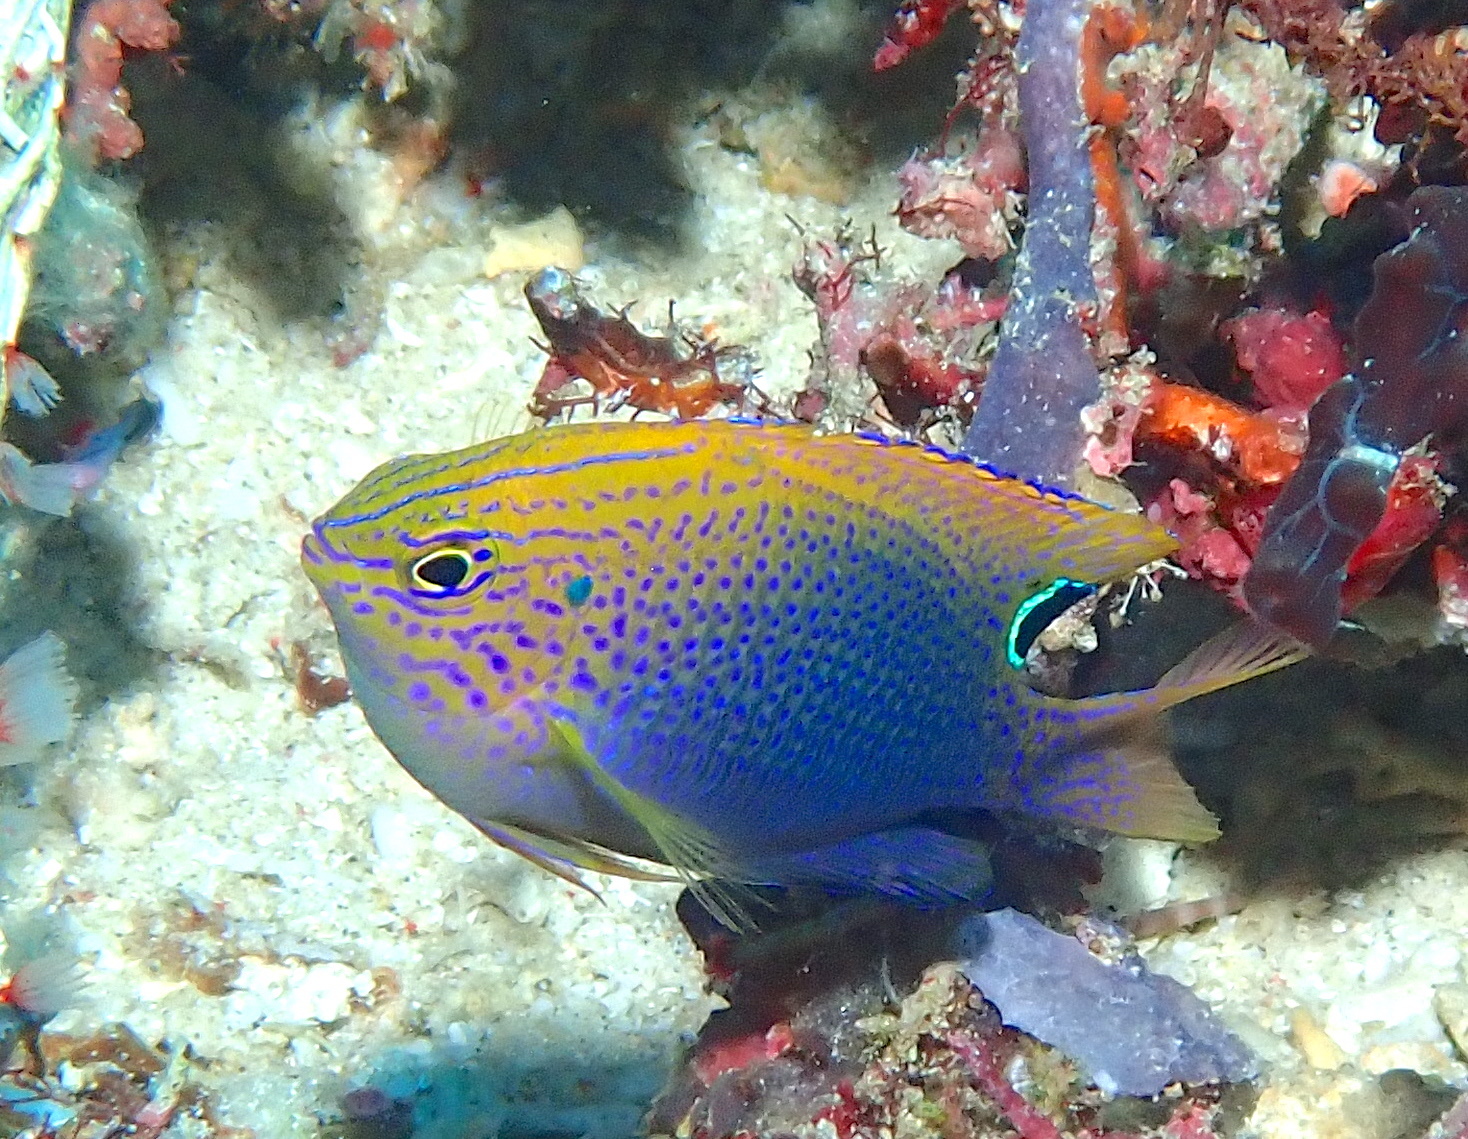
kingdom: Animalia
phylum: Chordata
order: Perciformes
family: Pomacentridae
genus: Pomacentrus
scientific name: Pomacentrus vaiuli
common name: Princess damsel
